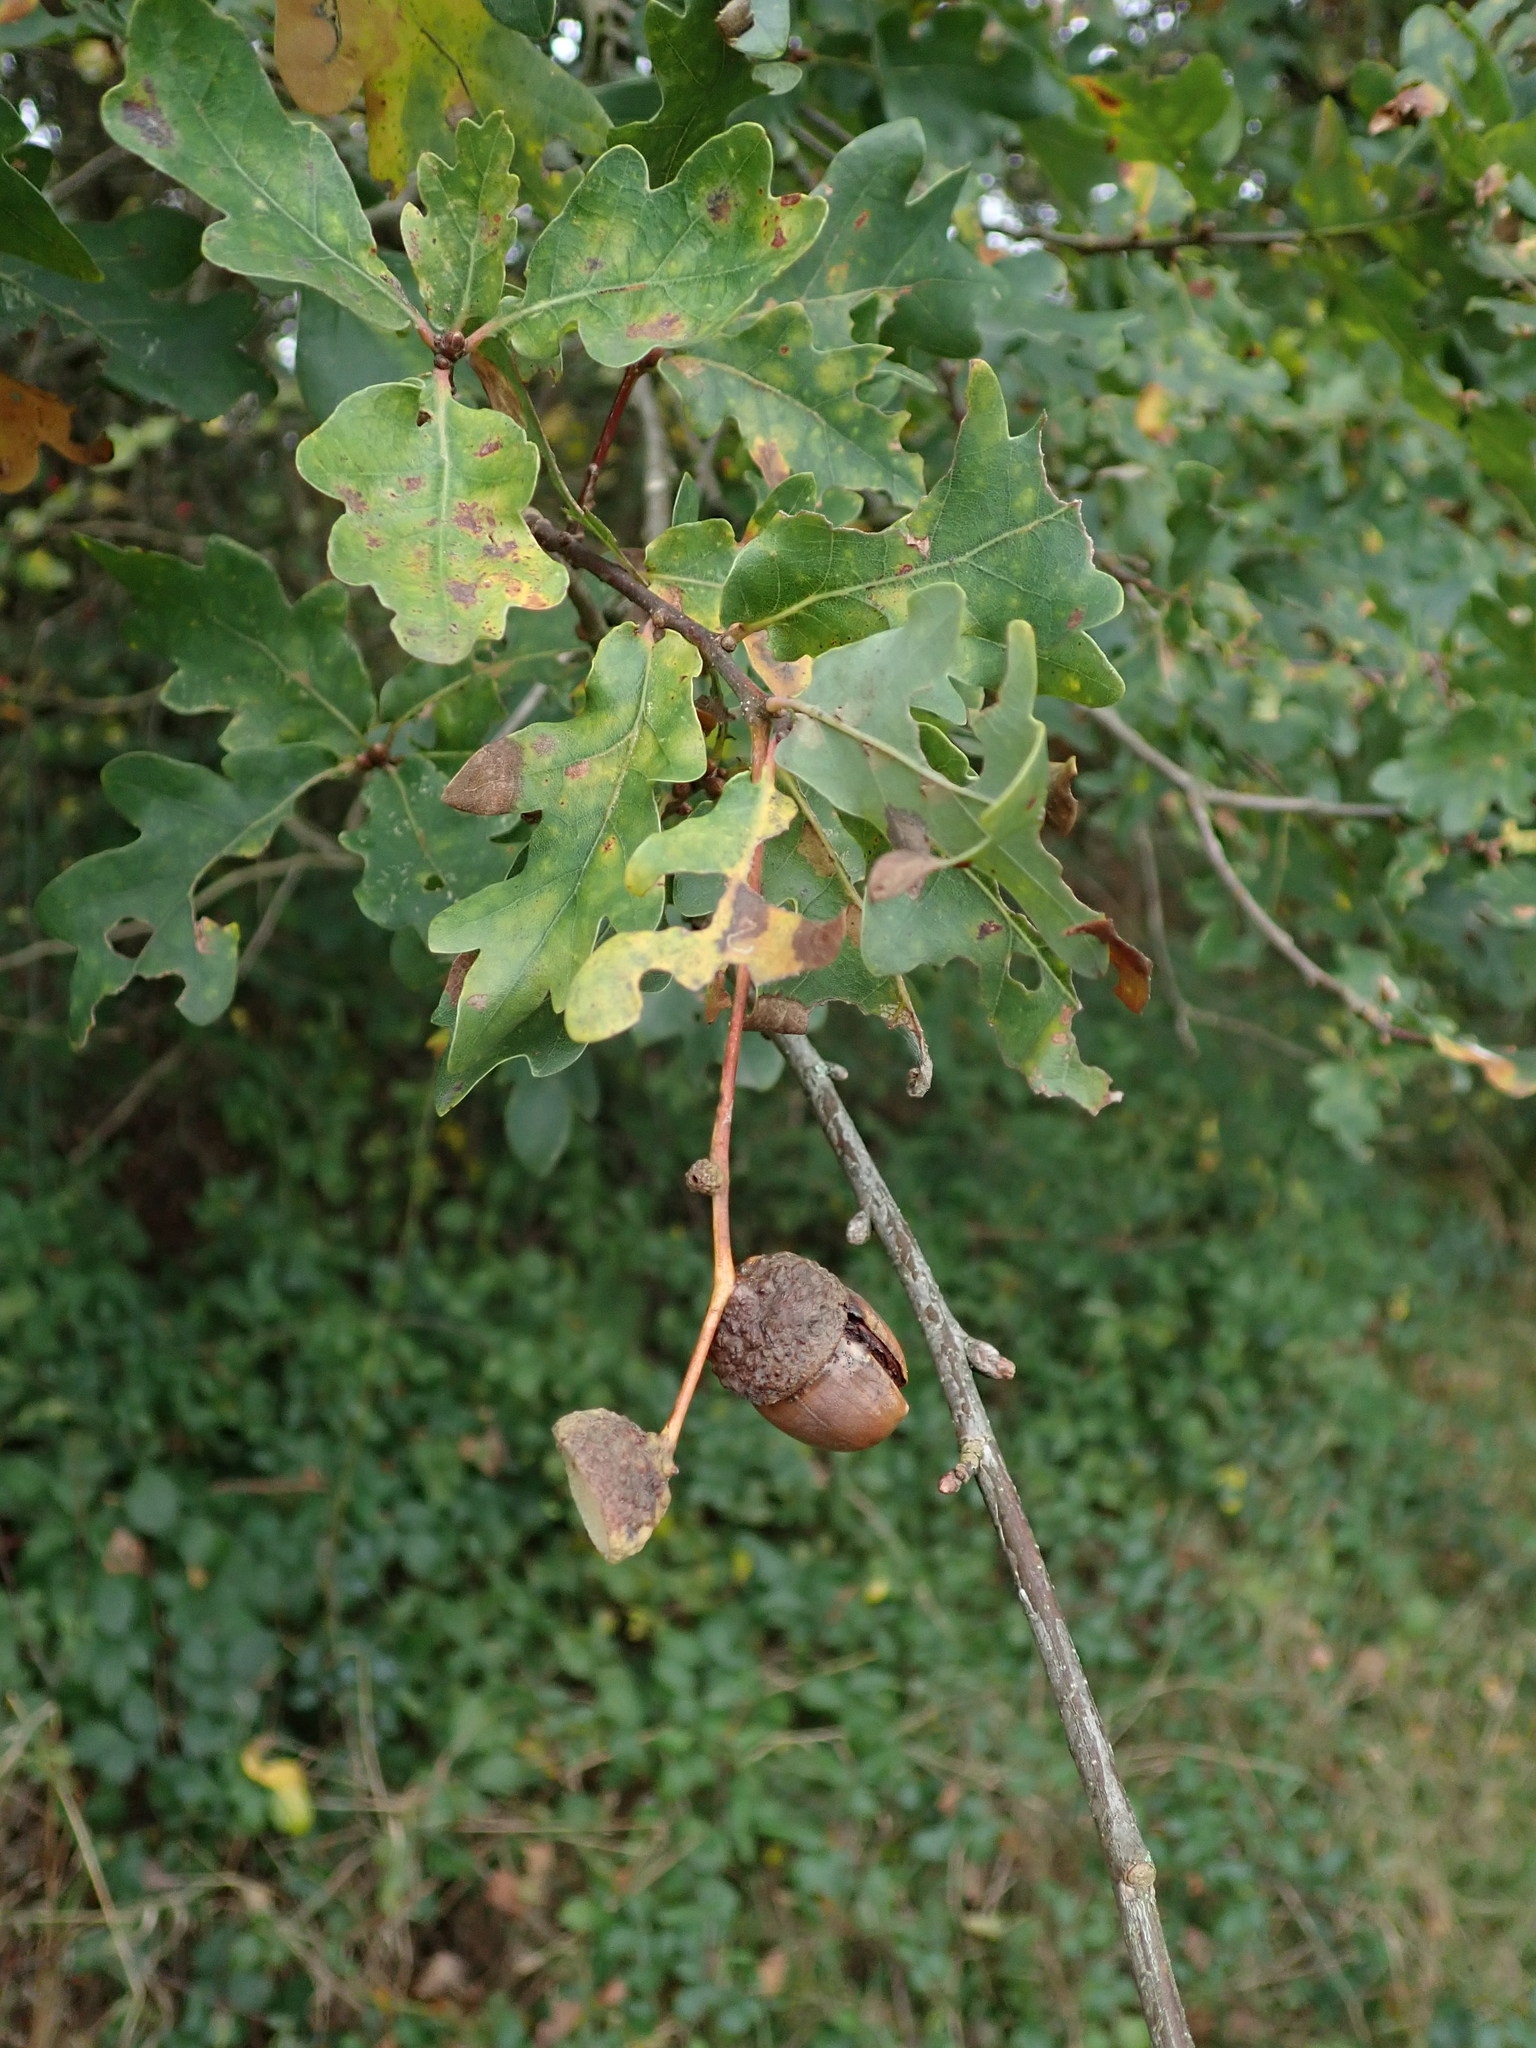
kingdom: Plantae
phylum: Tracheophyta
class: Magnoliopsida
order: Fagales
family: Fagaceae
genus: Quercus
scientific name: Quercus robur
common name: Pedunculate oak
